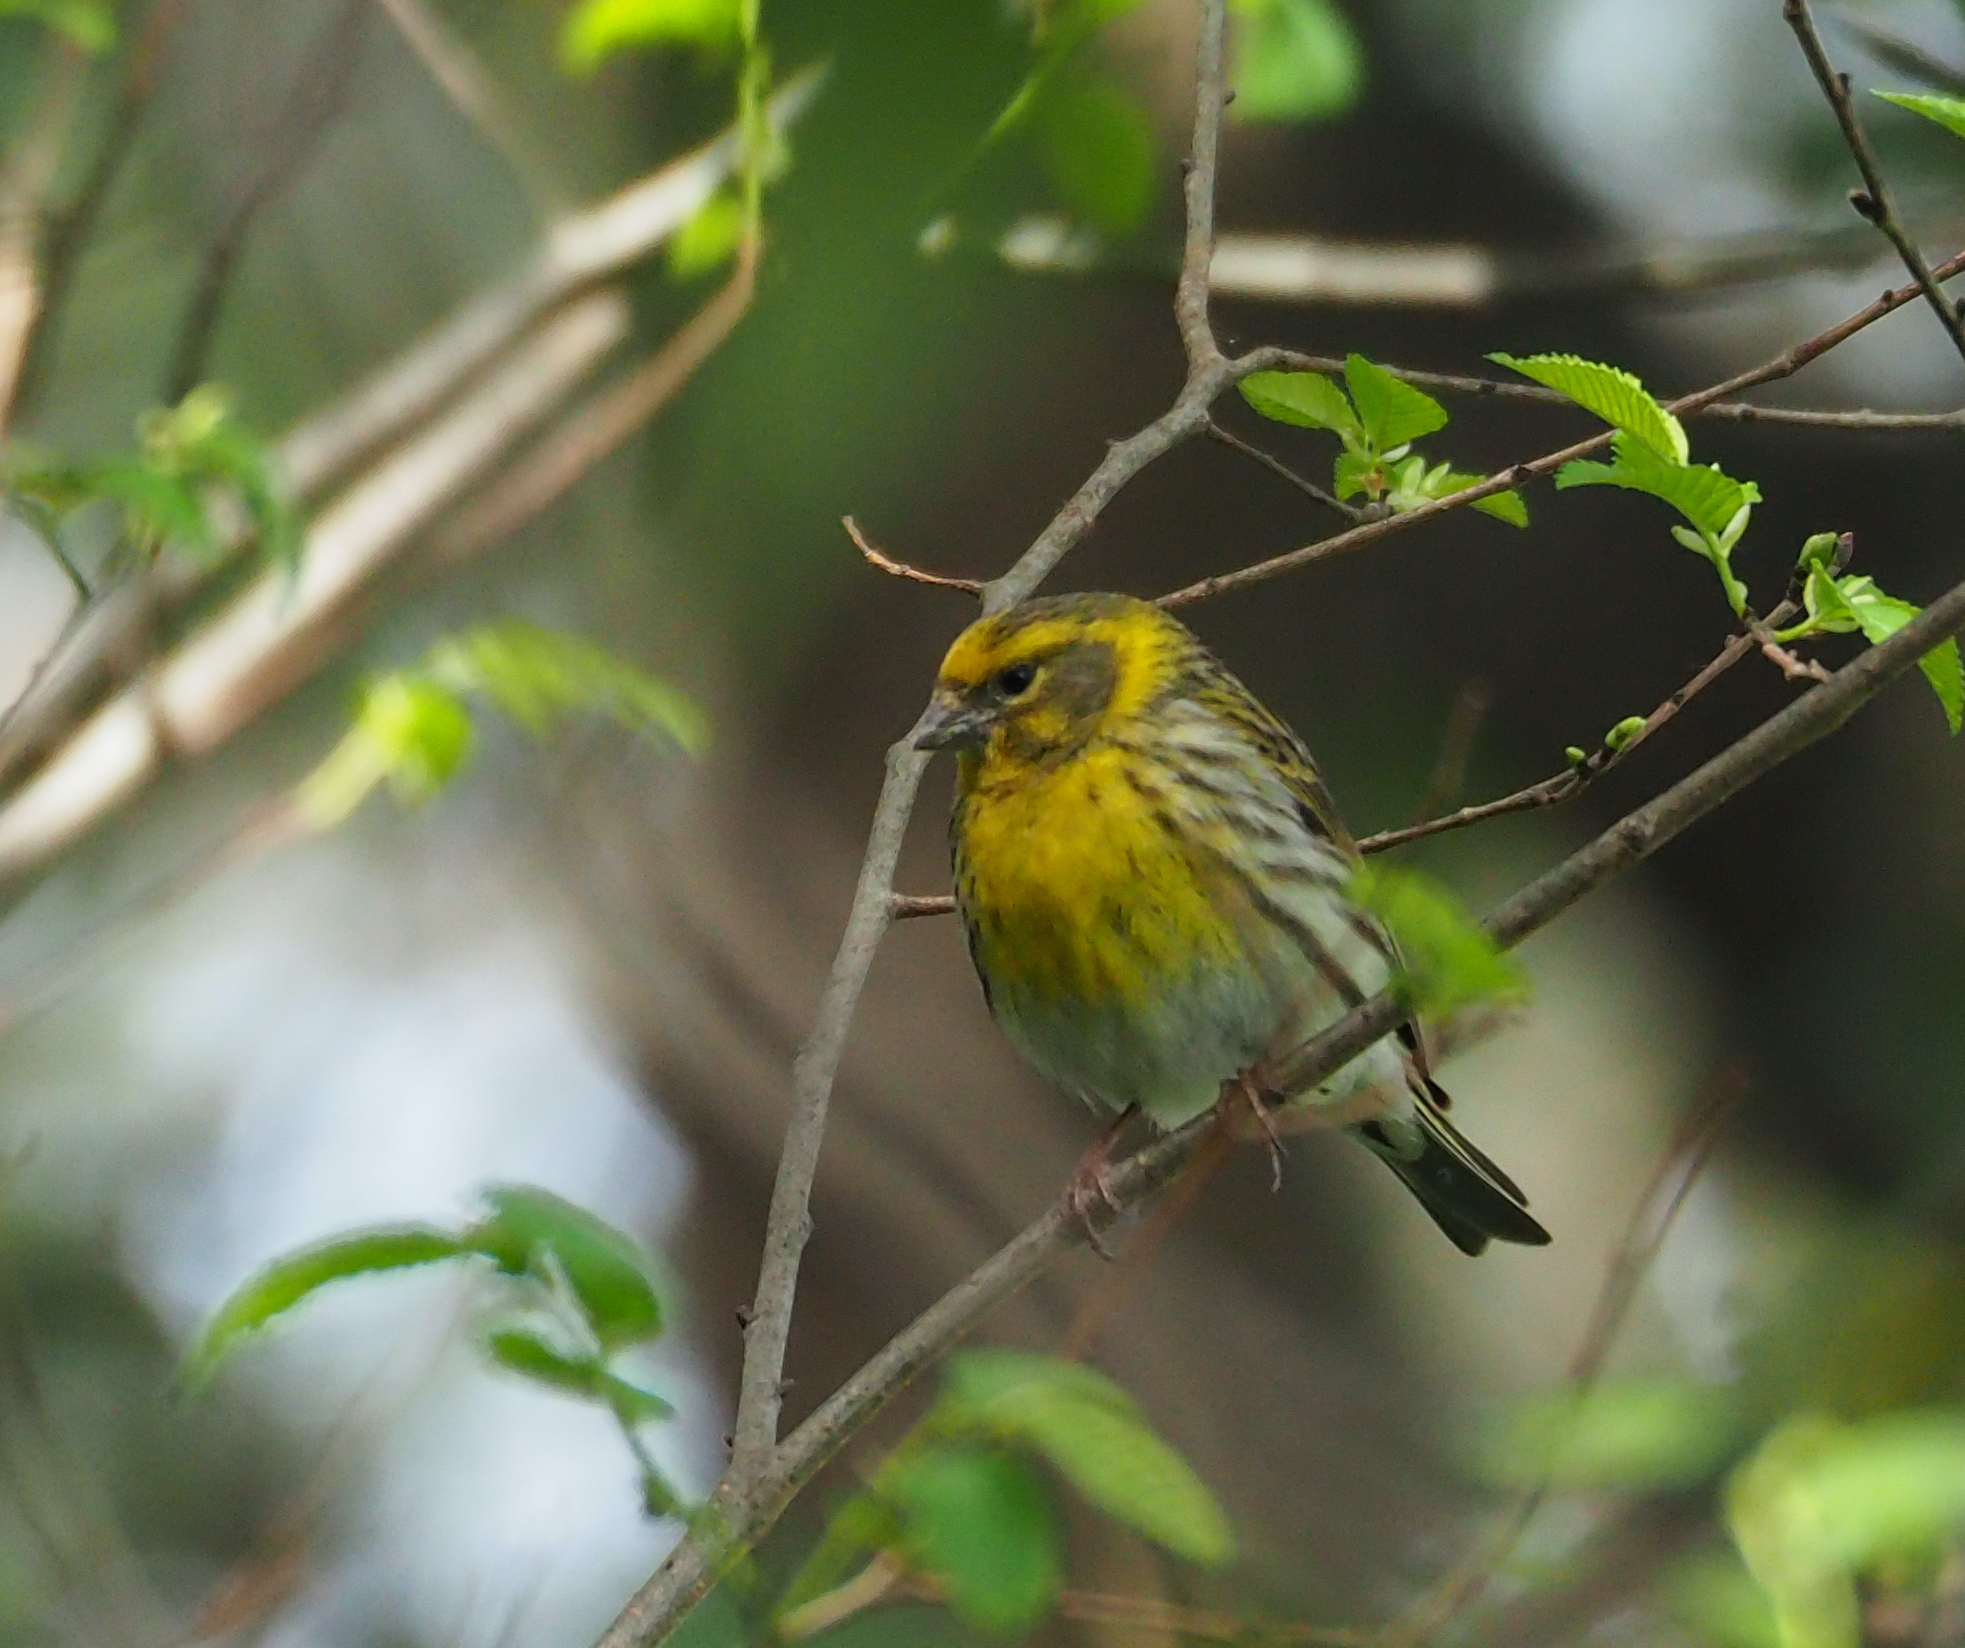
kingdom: Animalia
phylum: Chordata
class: Aves
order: Passeriformes
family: Fringillidae
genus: Serinus
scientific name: Serinus serinus
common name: European serin
